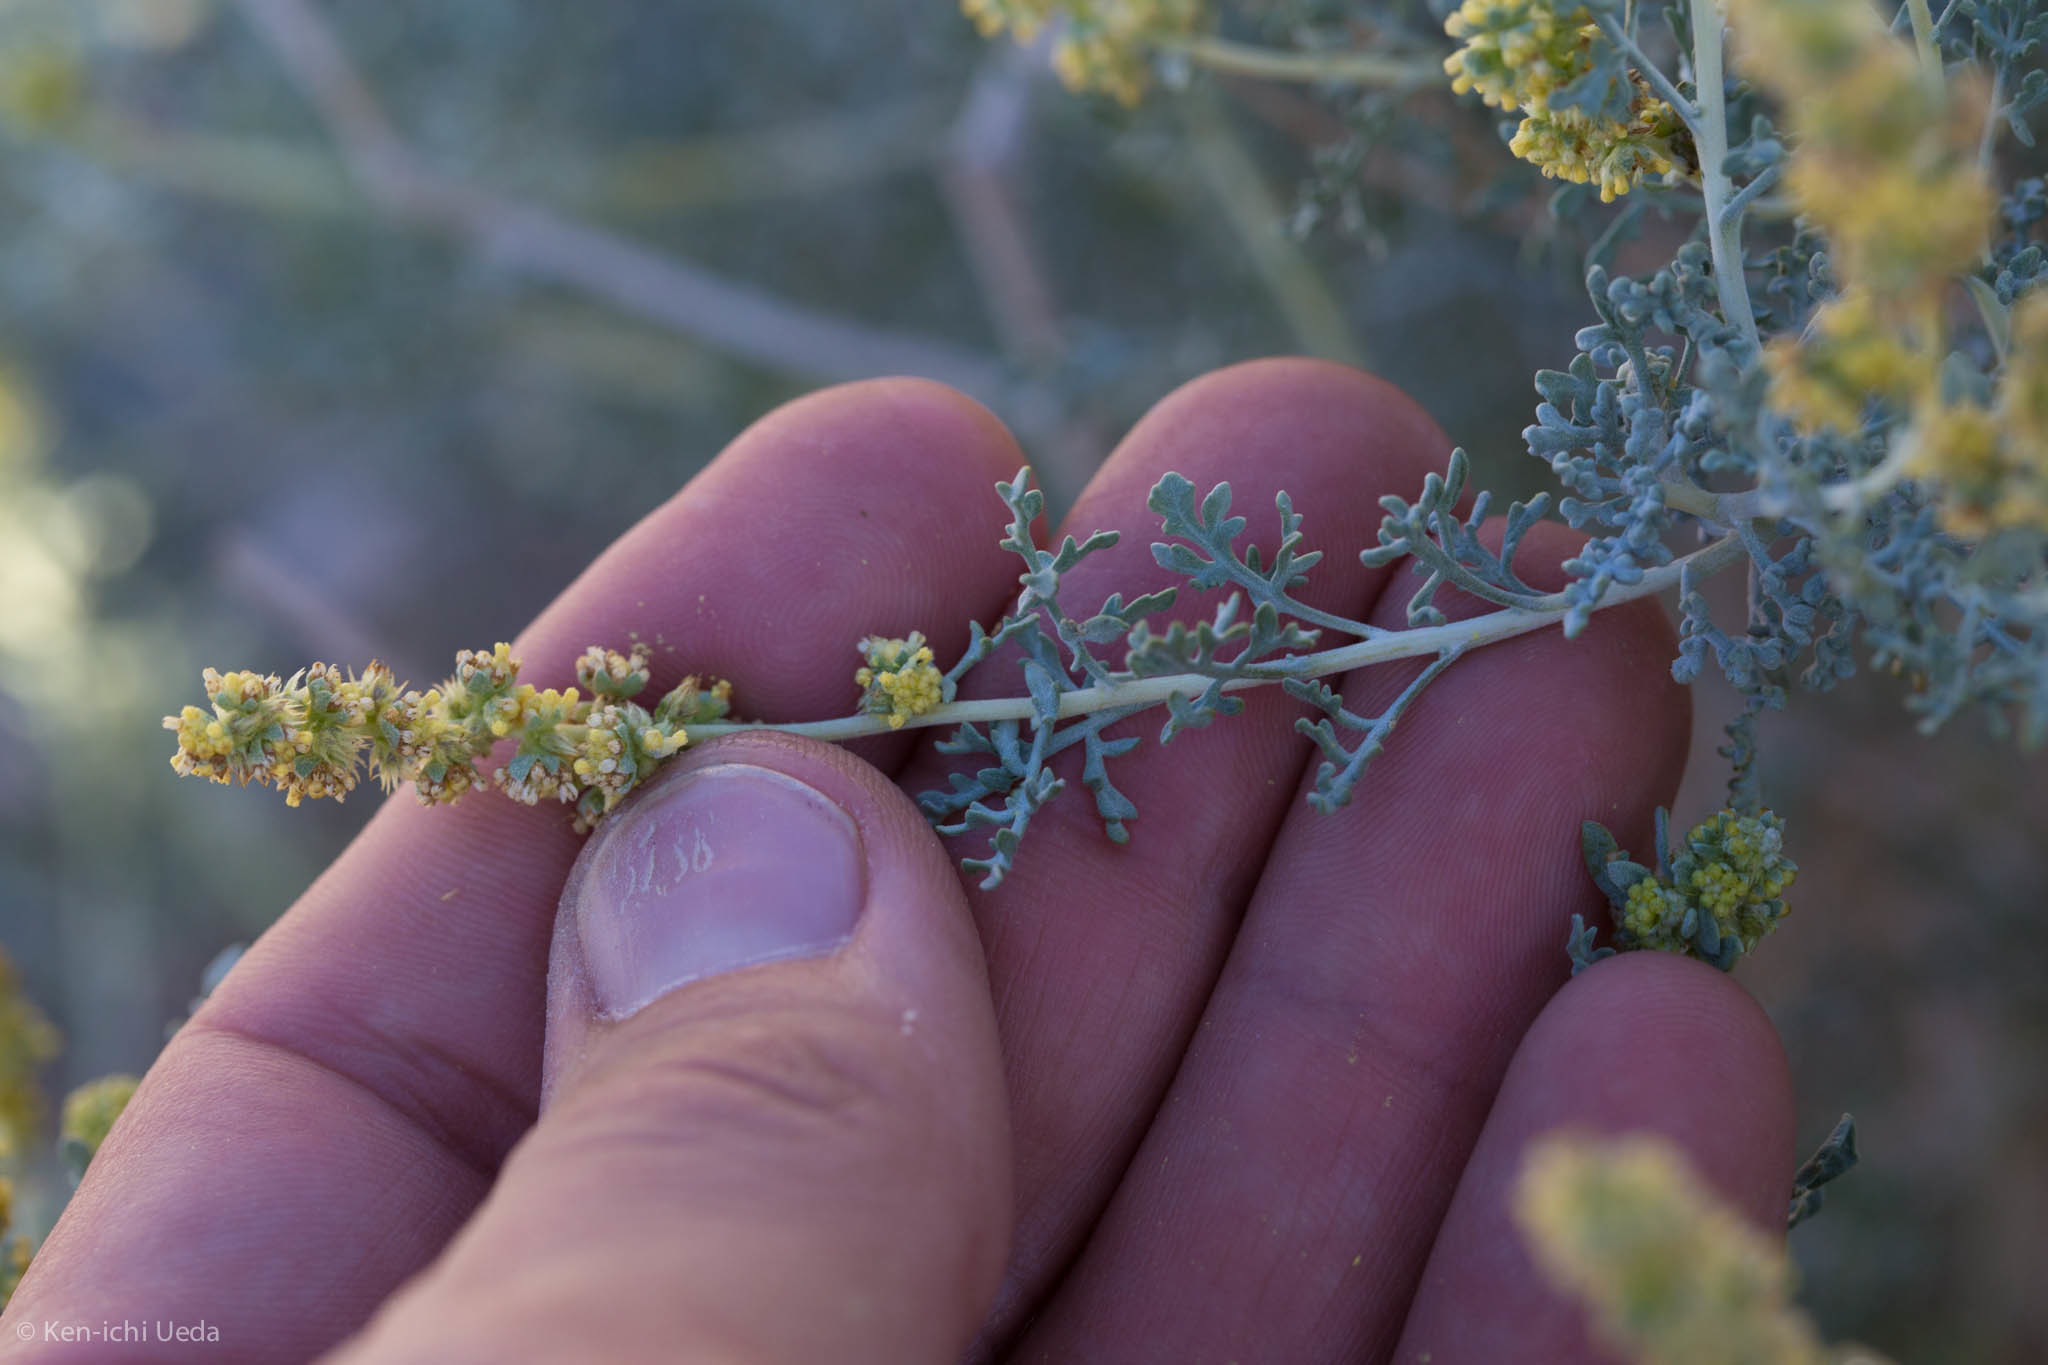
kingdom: Plantae
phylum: Tracheophyta
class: Magnoliopsida
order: Asterales
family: Asteraceae
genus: Ambrosia
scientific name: Ambrosia dumosa
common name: Bur-sage
